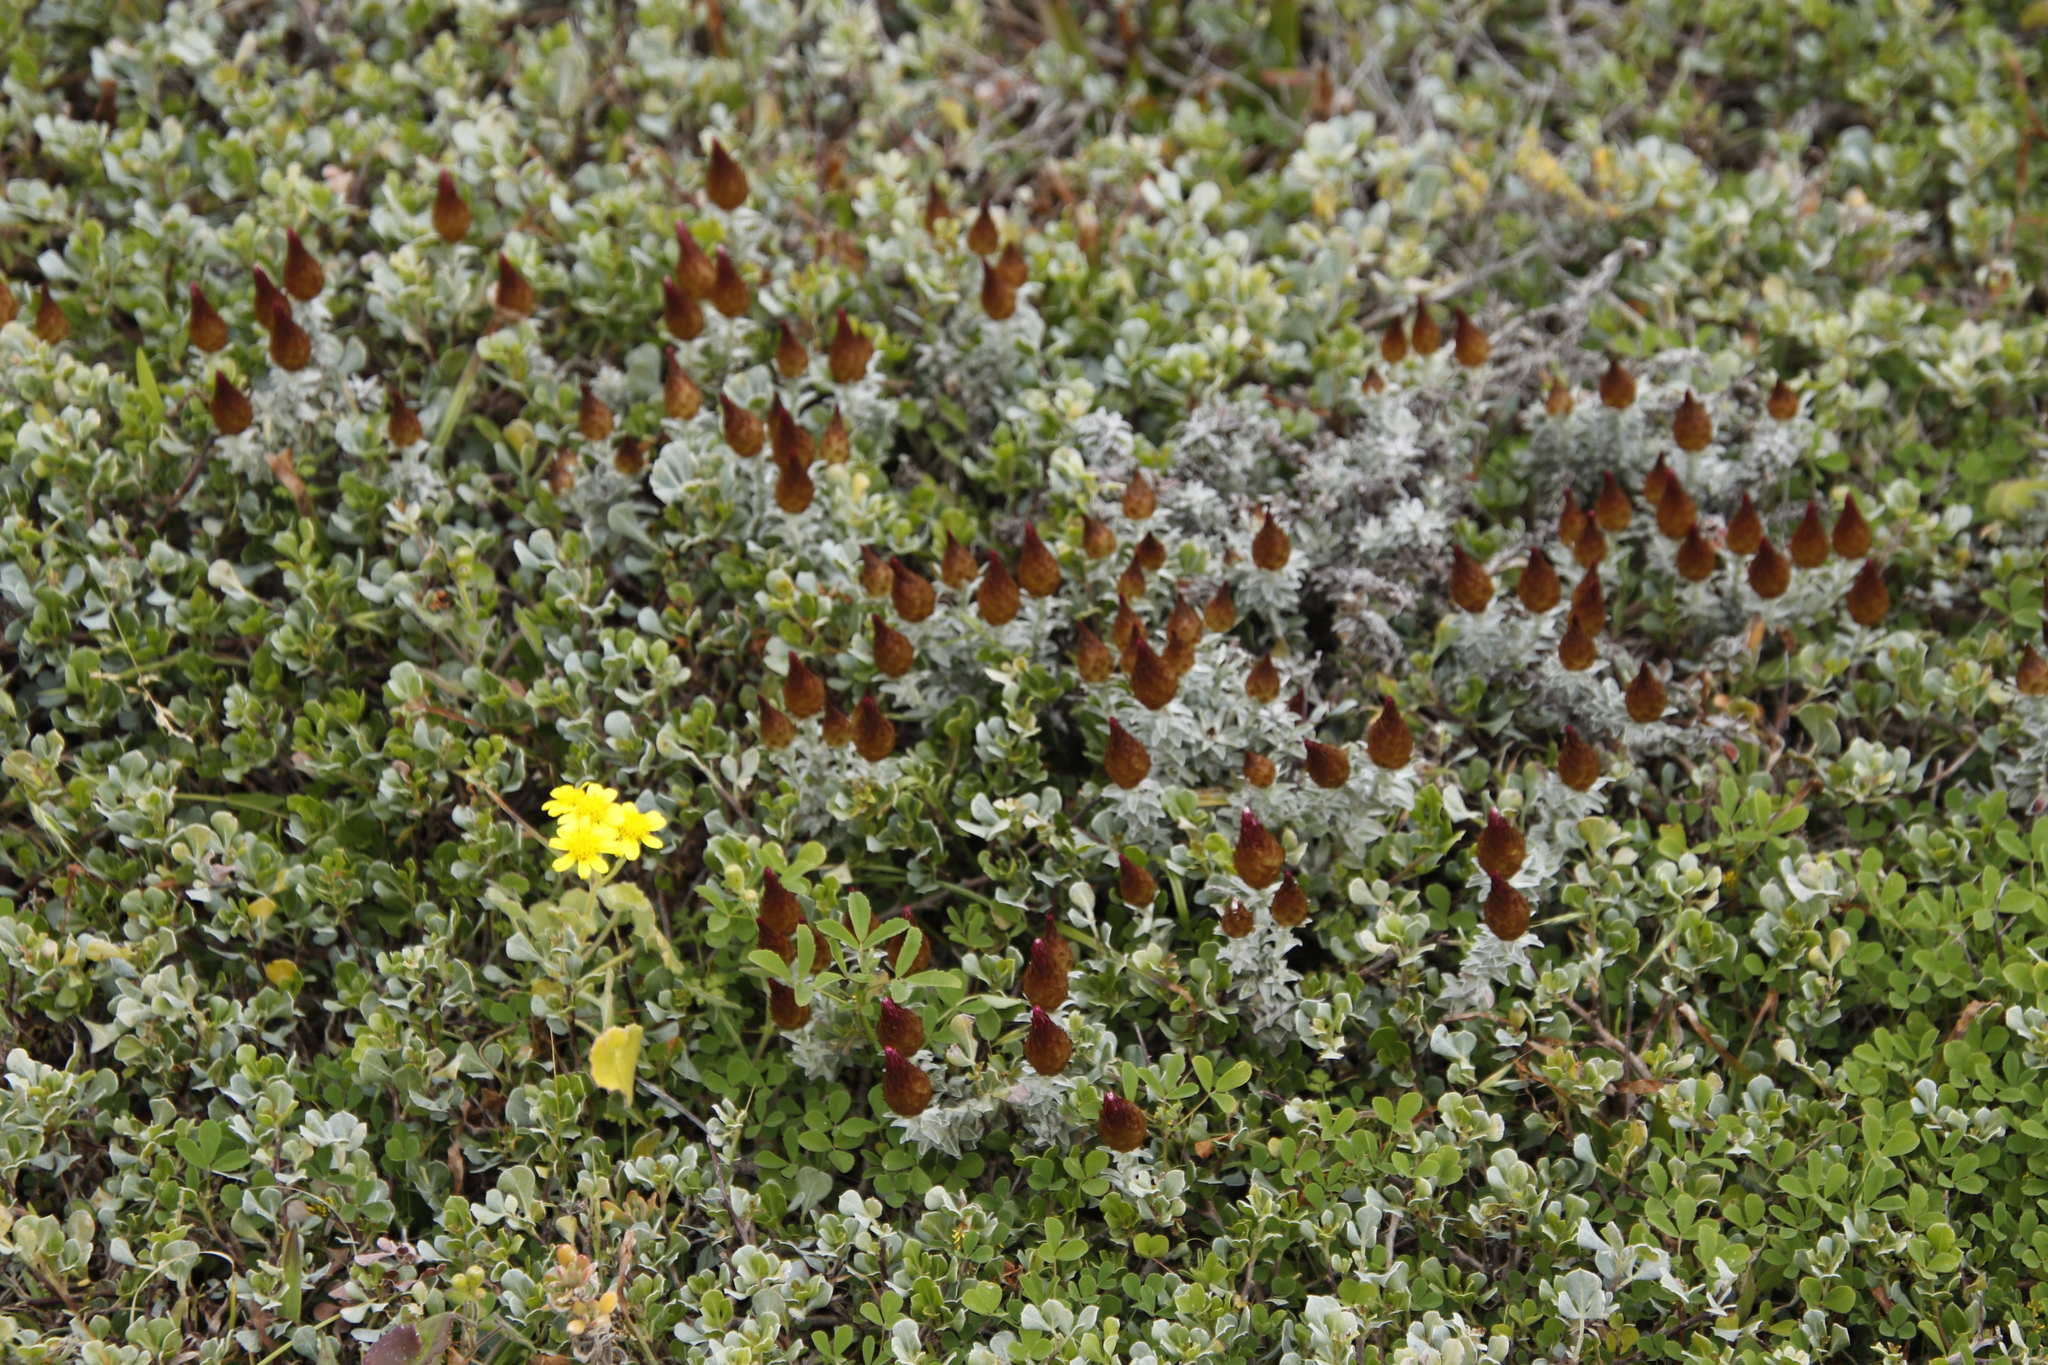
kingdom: Plantae
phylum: Tracheophyta
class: Magnoliopsida
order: Asterales
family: Asteraceae
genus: Helichrysum
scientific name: Helichrysum retortum
